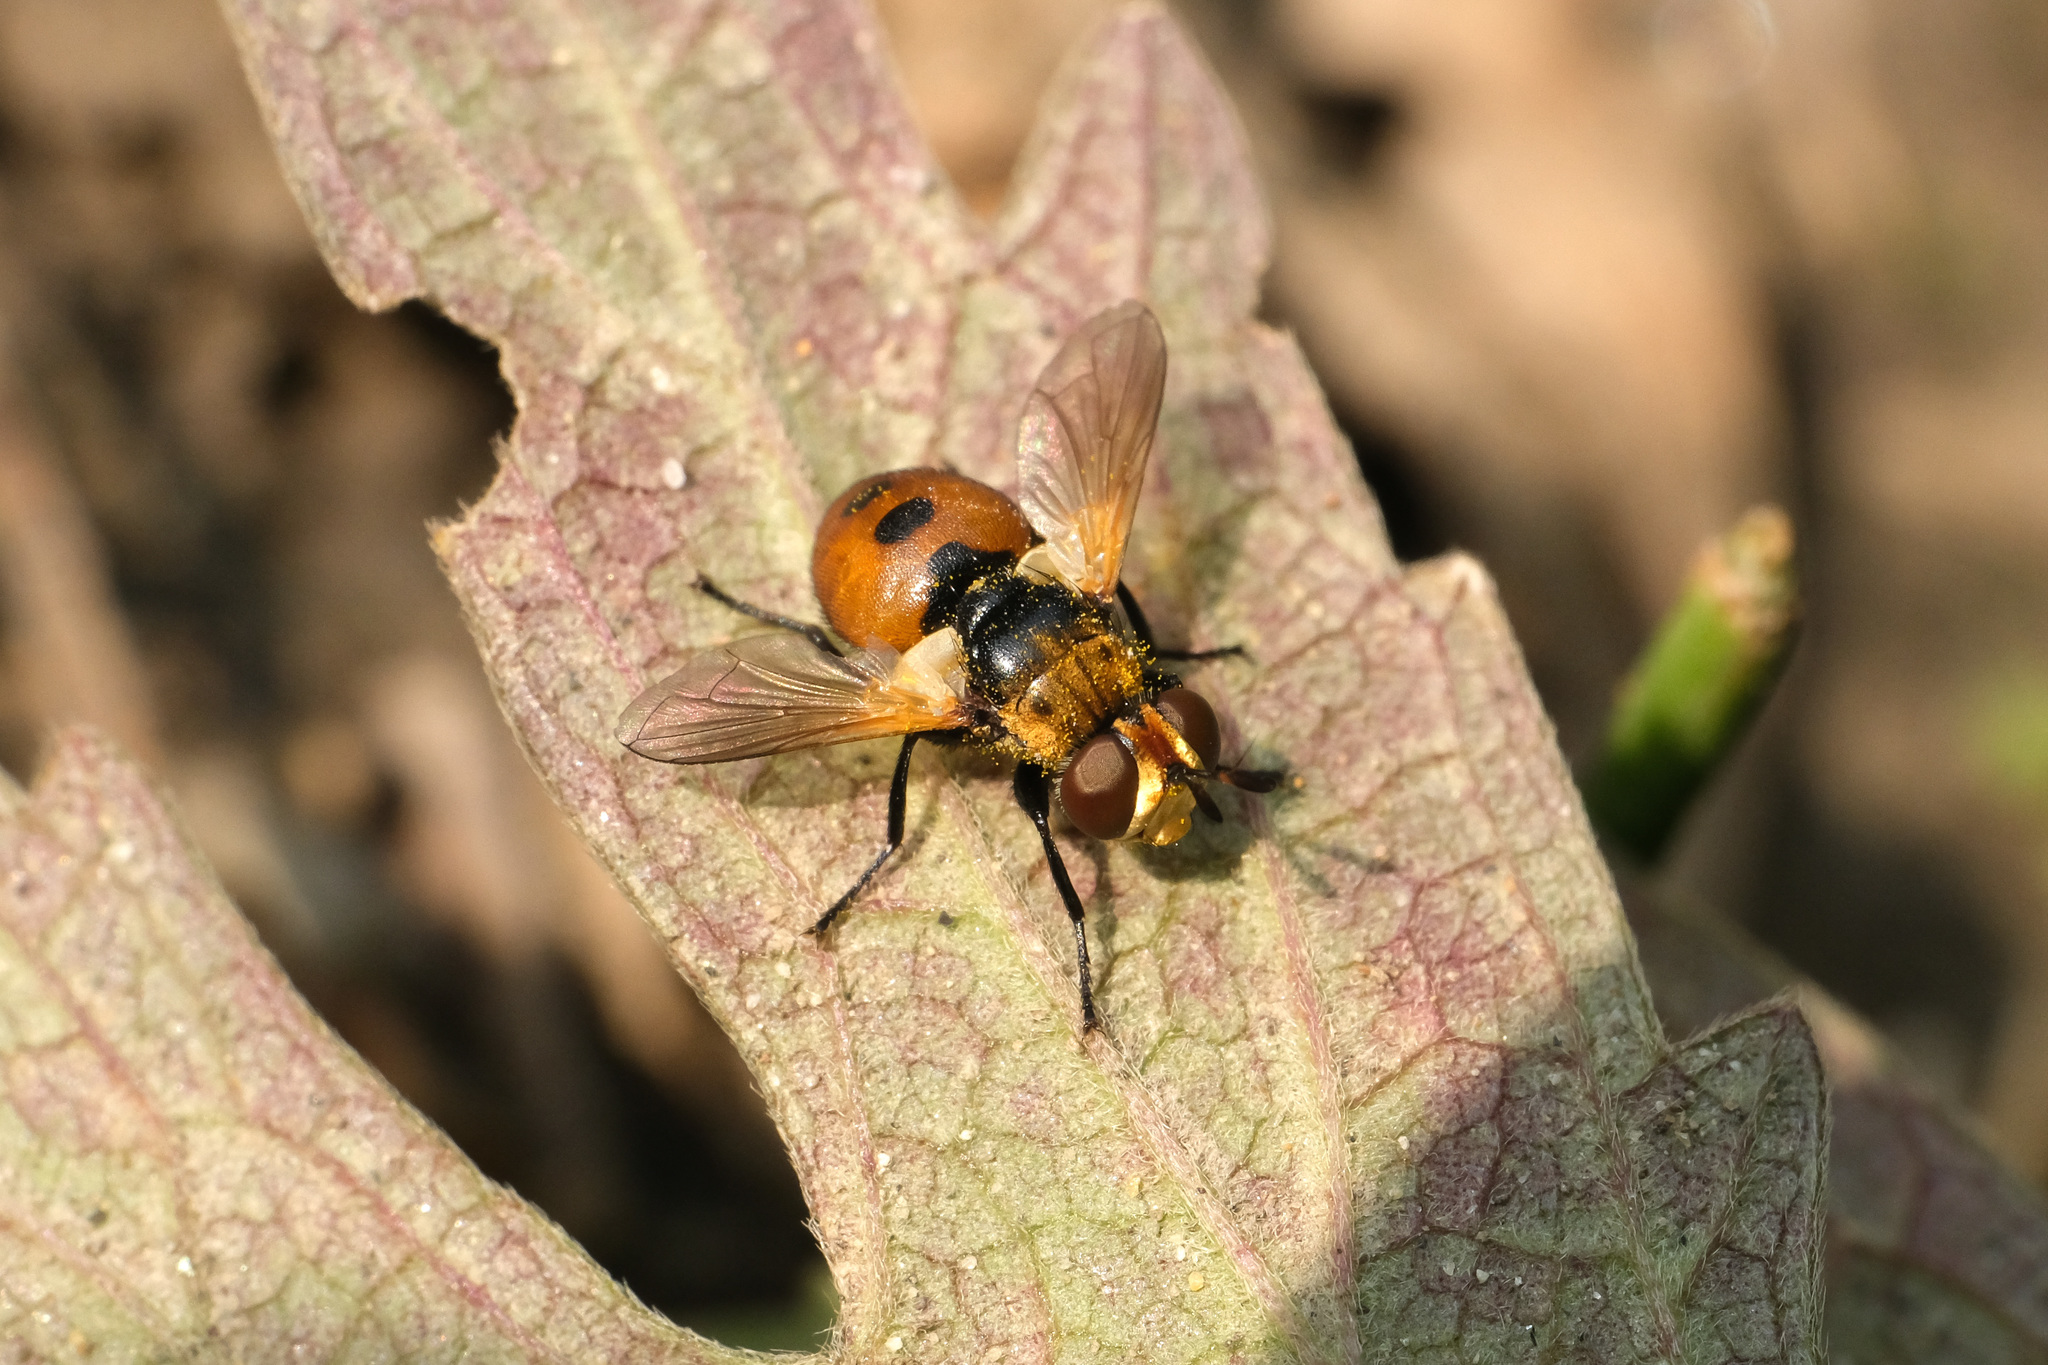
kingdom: Animalia
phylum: Arthropoda
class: Insecta
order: Diptera
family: Tachinidae
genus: Gymnosoma
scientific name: Gymnosoma rotundatum
